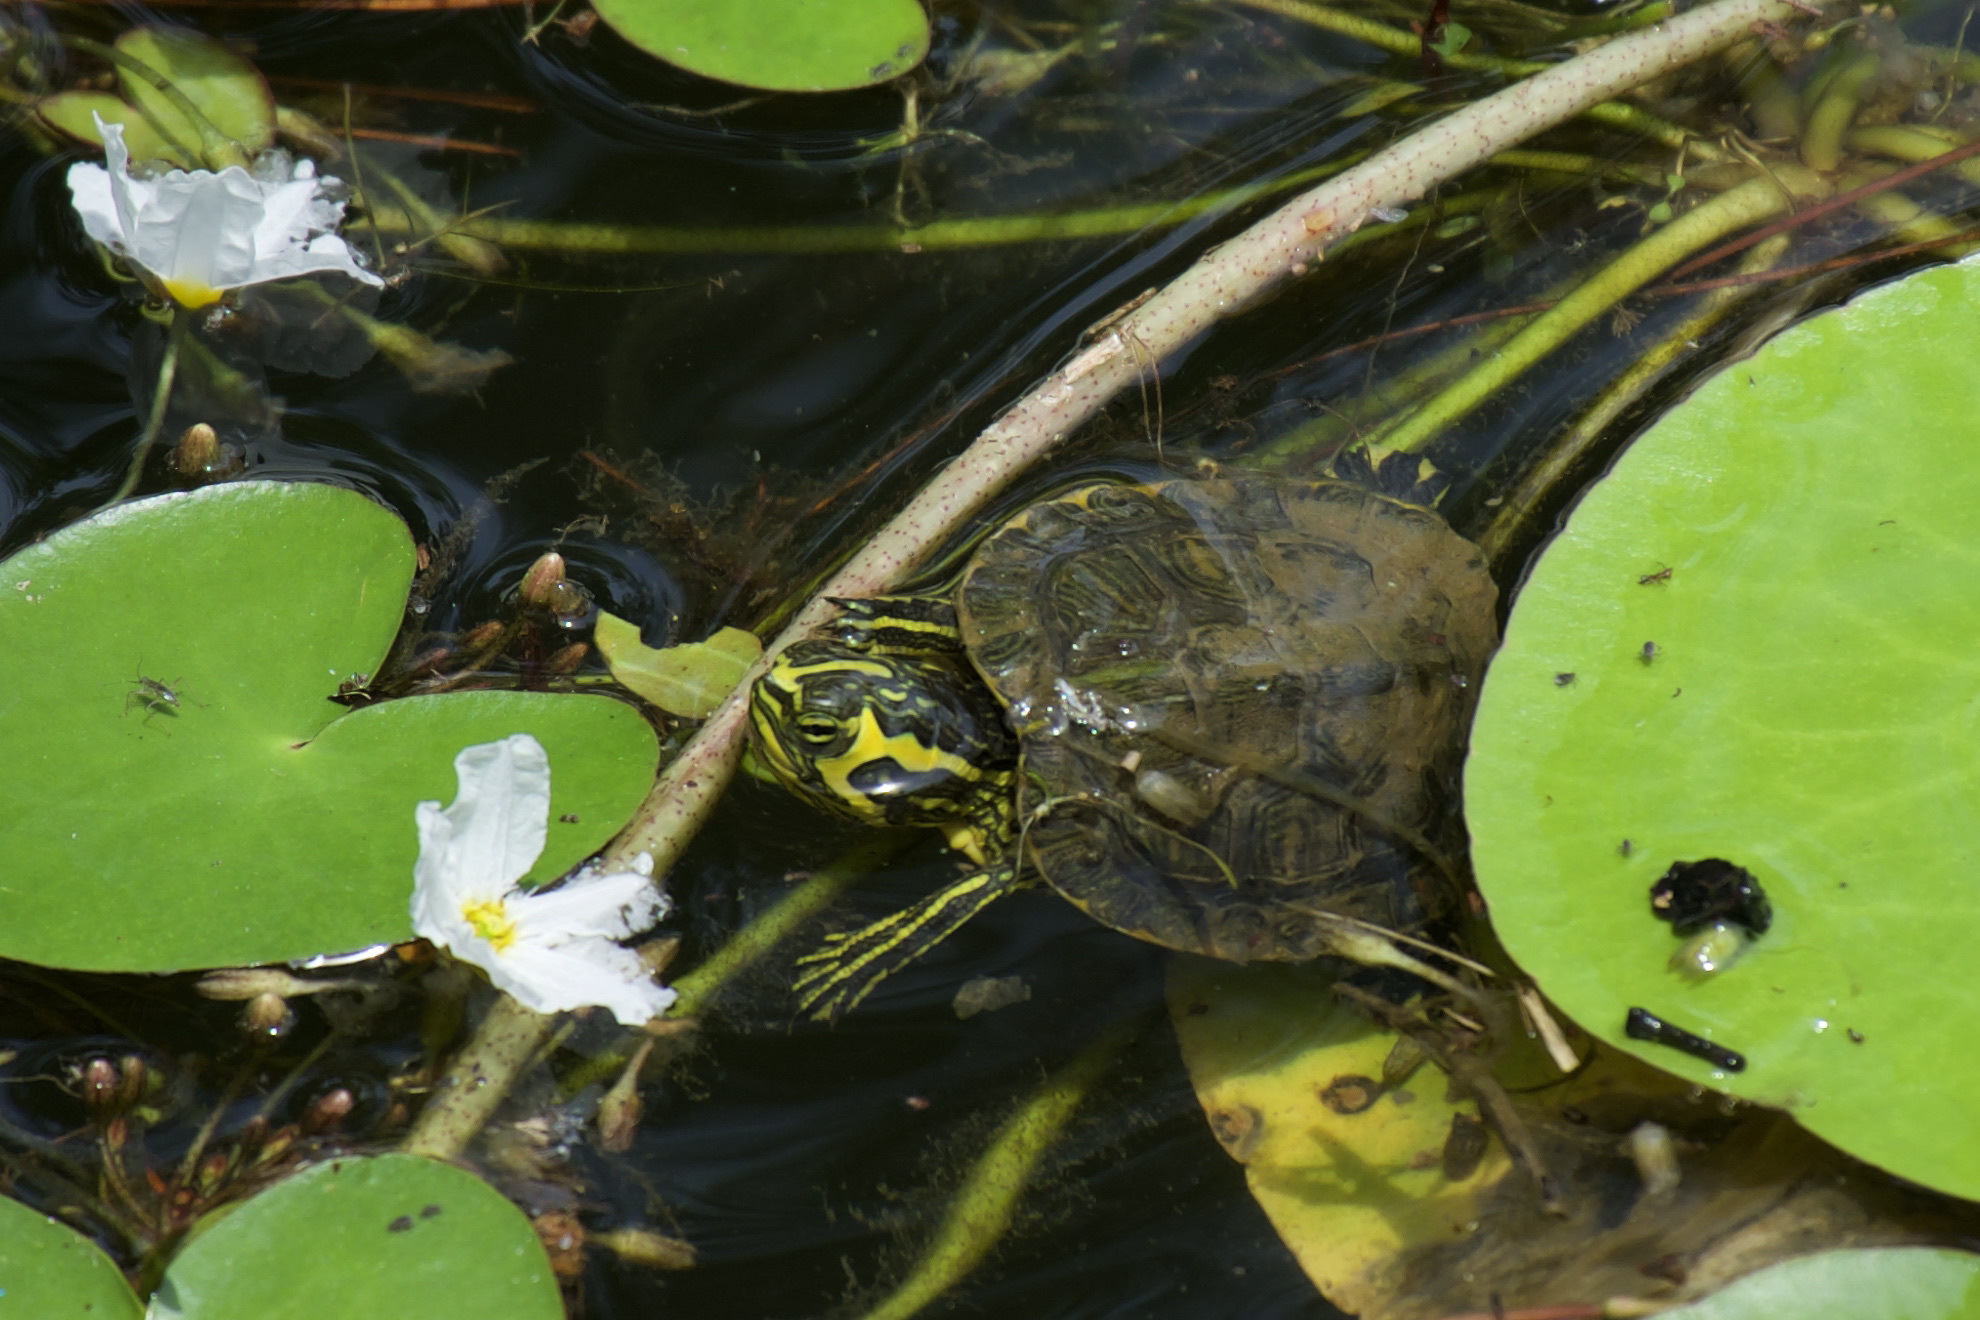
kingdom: Animalia
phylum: Chordata
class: Testudines
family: Emydidae
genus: Trachemys
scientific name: Trachemys scripta
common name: Slider
